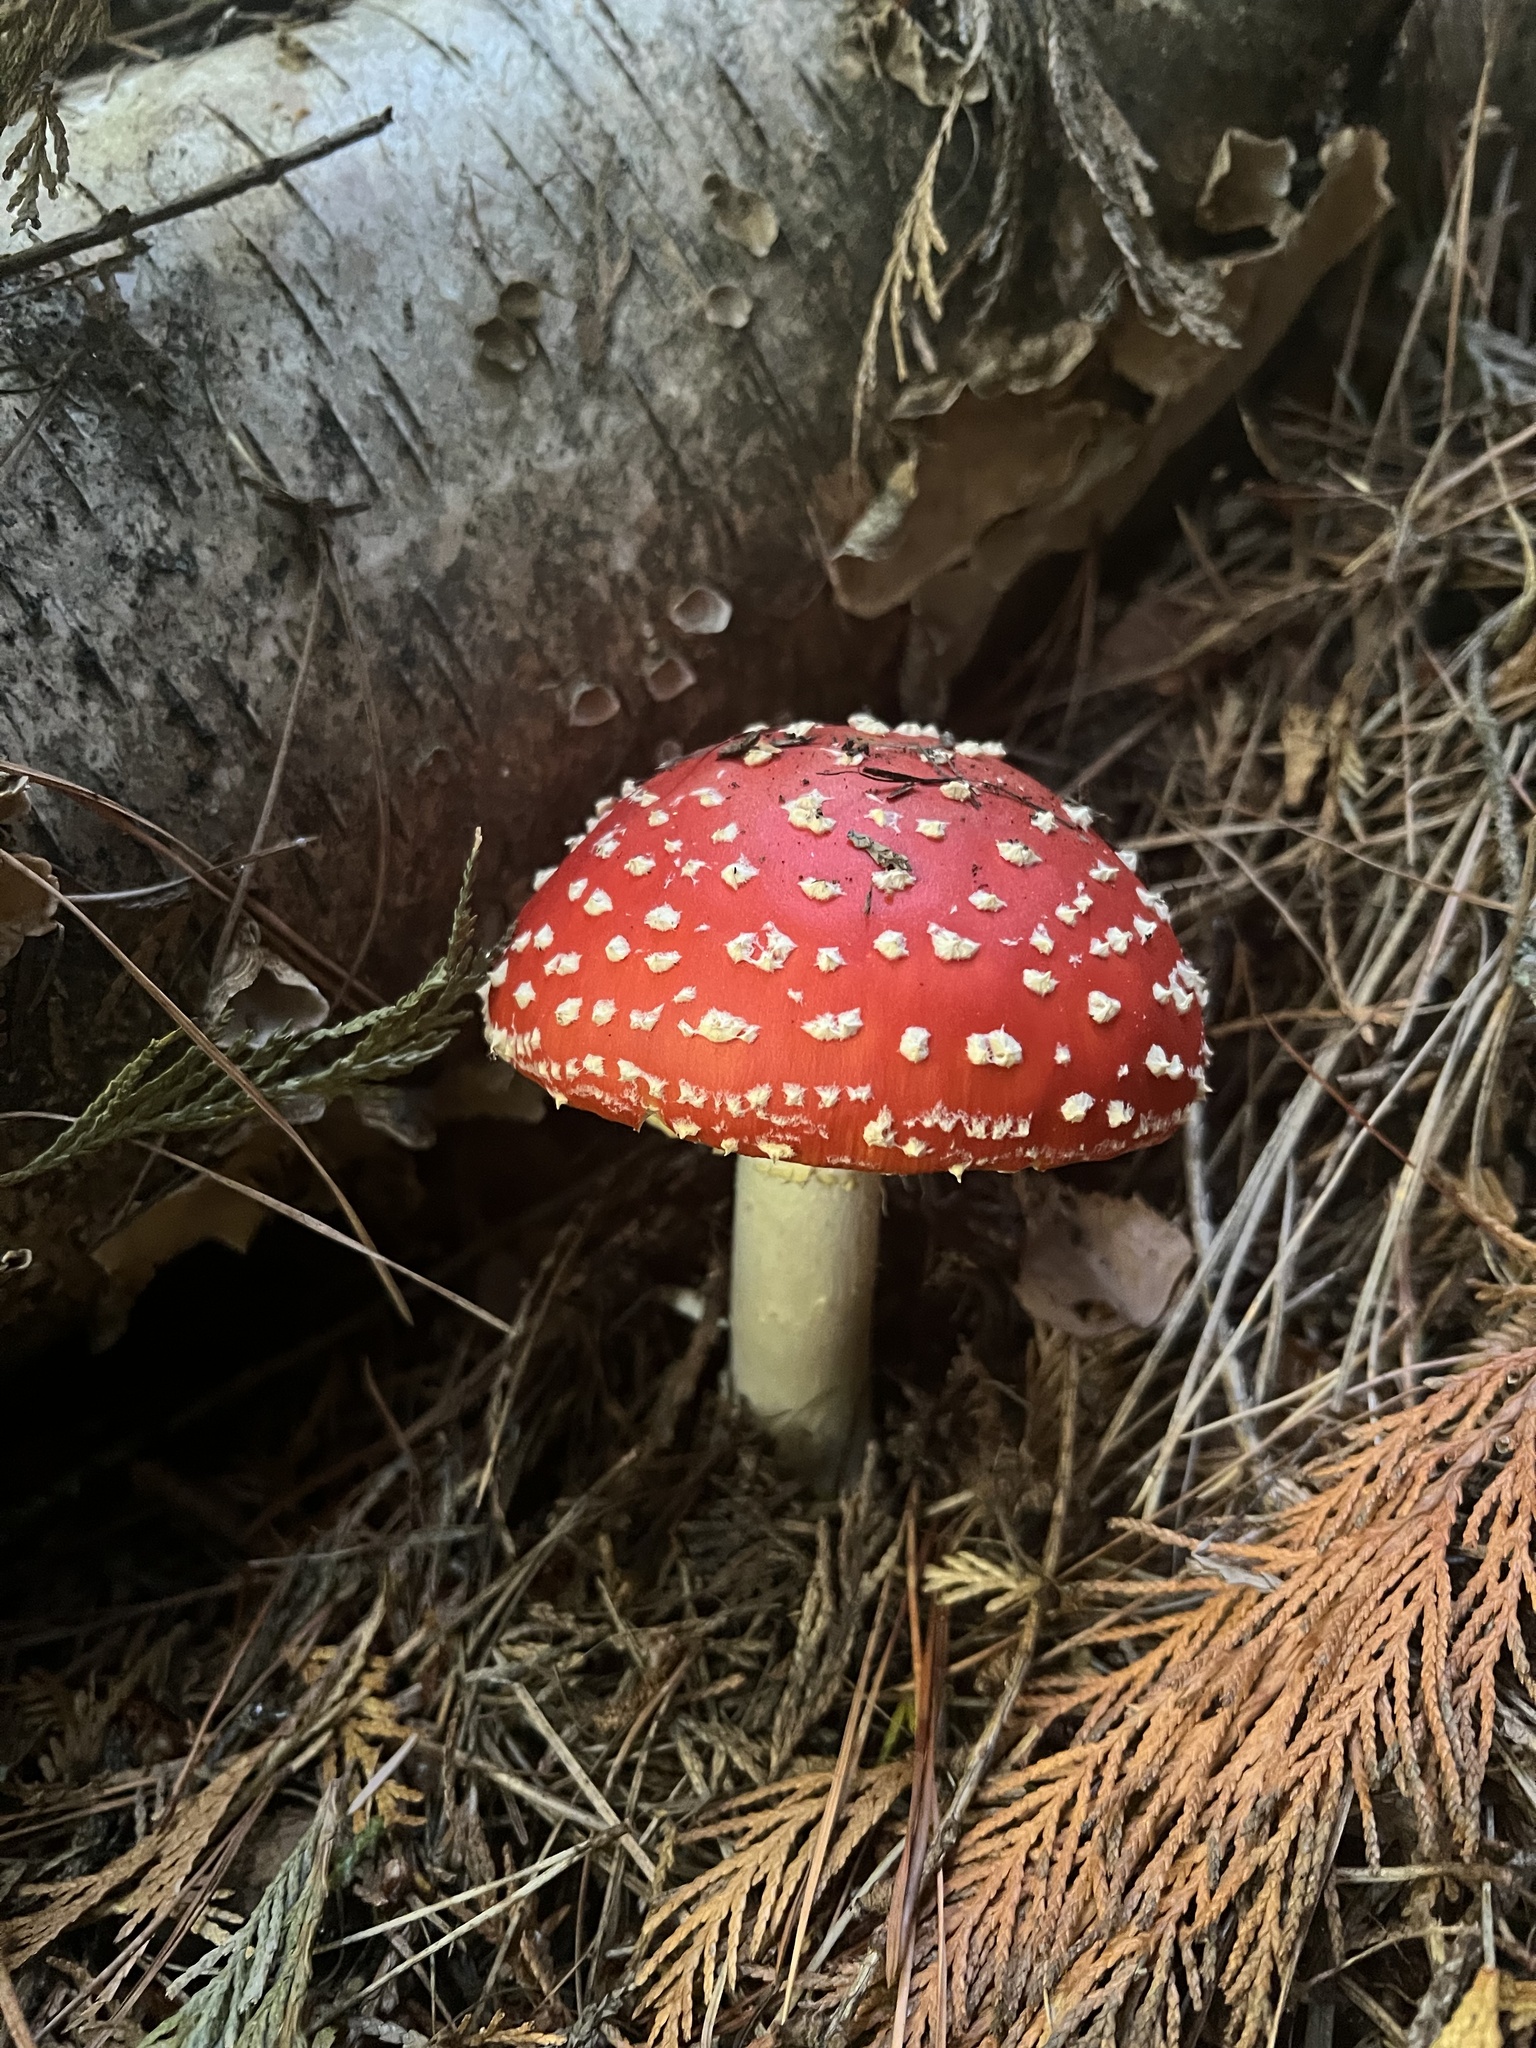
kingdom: Fungi
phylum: Basidiomycota
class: Agaricomycetes
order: Agaricales
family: Amanitaceae
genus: Amanita
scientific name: Amanita muscaria
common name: Fly agaric
